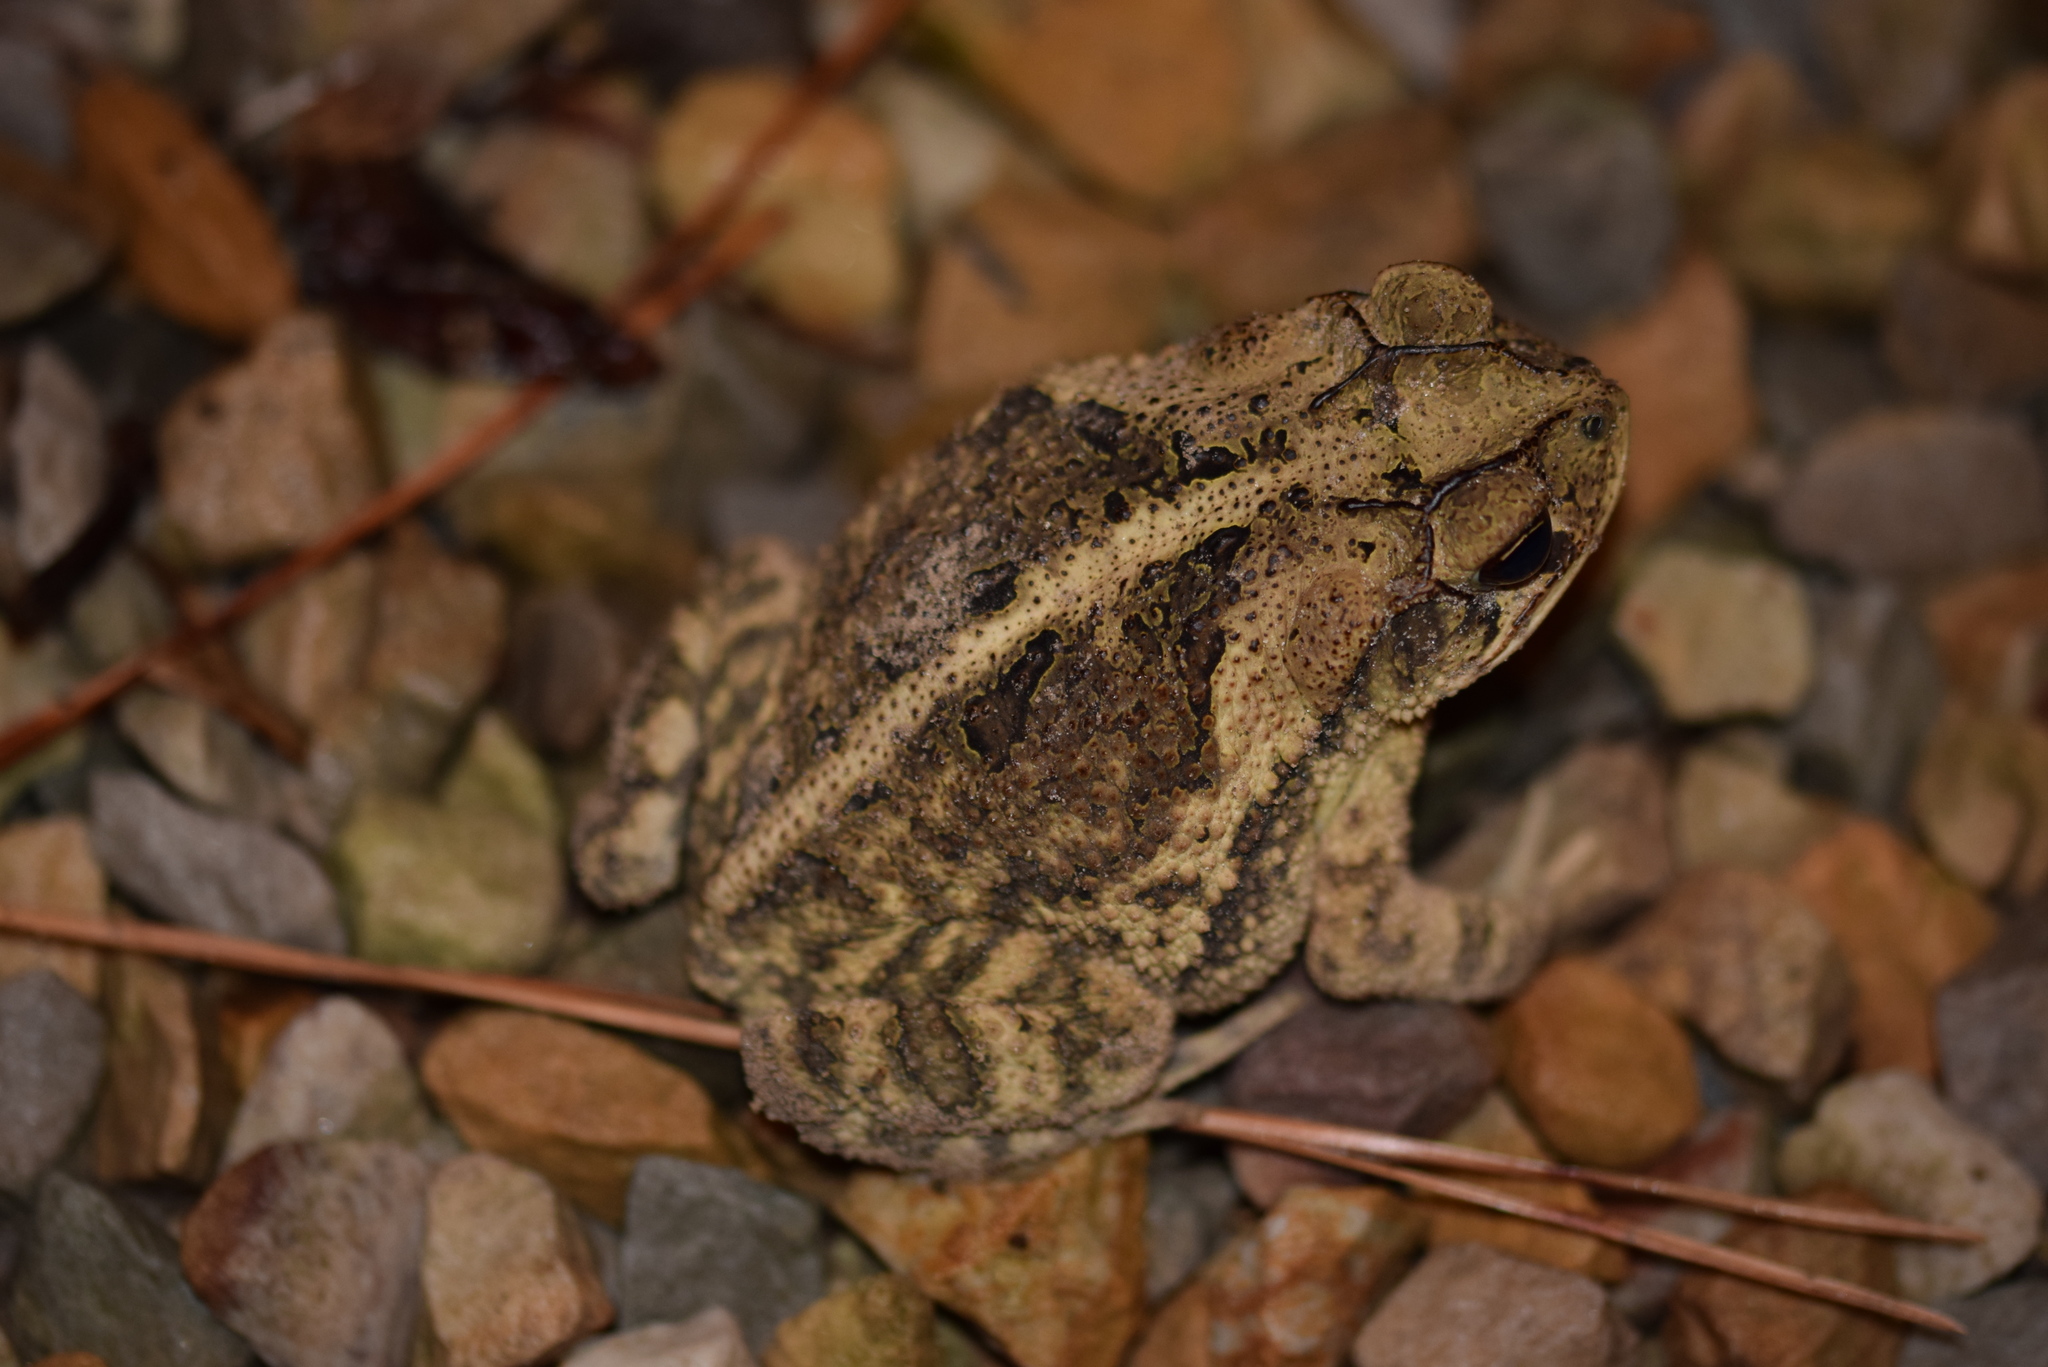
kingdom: Animalia
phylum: Chordata
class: Amphibia
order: Anura
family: Bufonidae
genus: Incilius
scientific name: Incilius nebulifer
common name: Gulf coast toad
